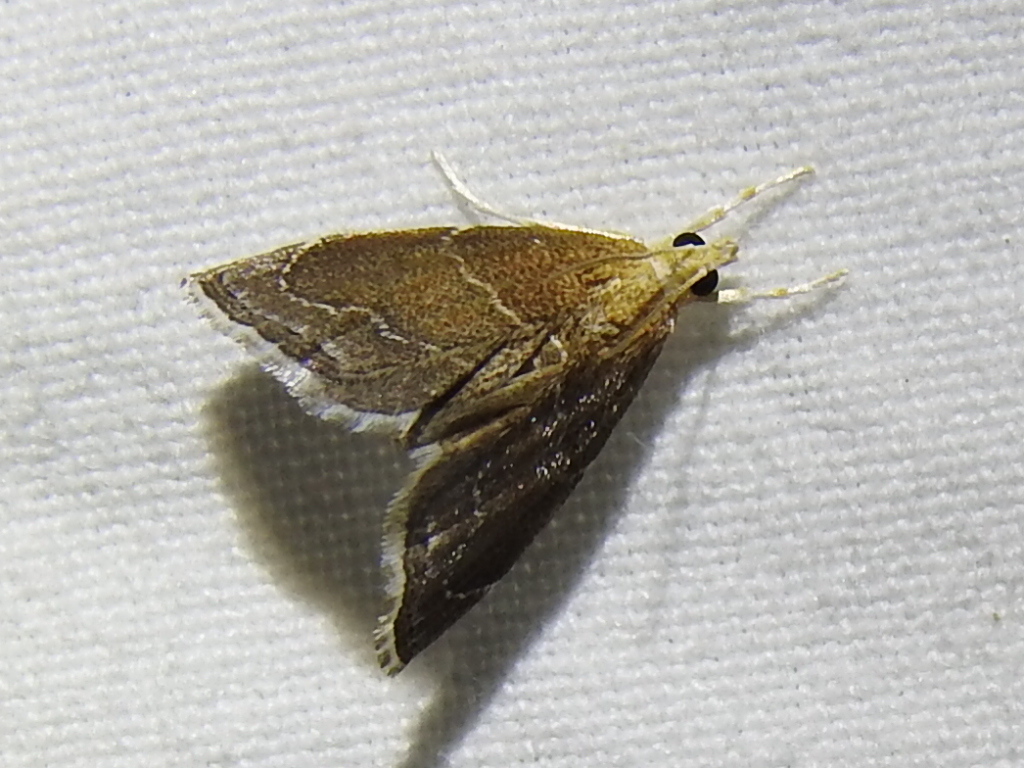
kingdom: Animalia
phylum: Arthropoda
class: Insecta
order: Lepidoptera
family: Crambidae
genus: Stegea
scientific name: Stegea eripalis
